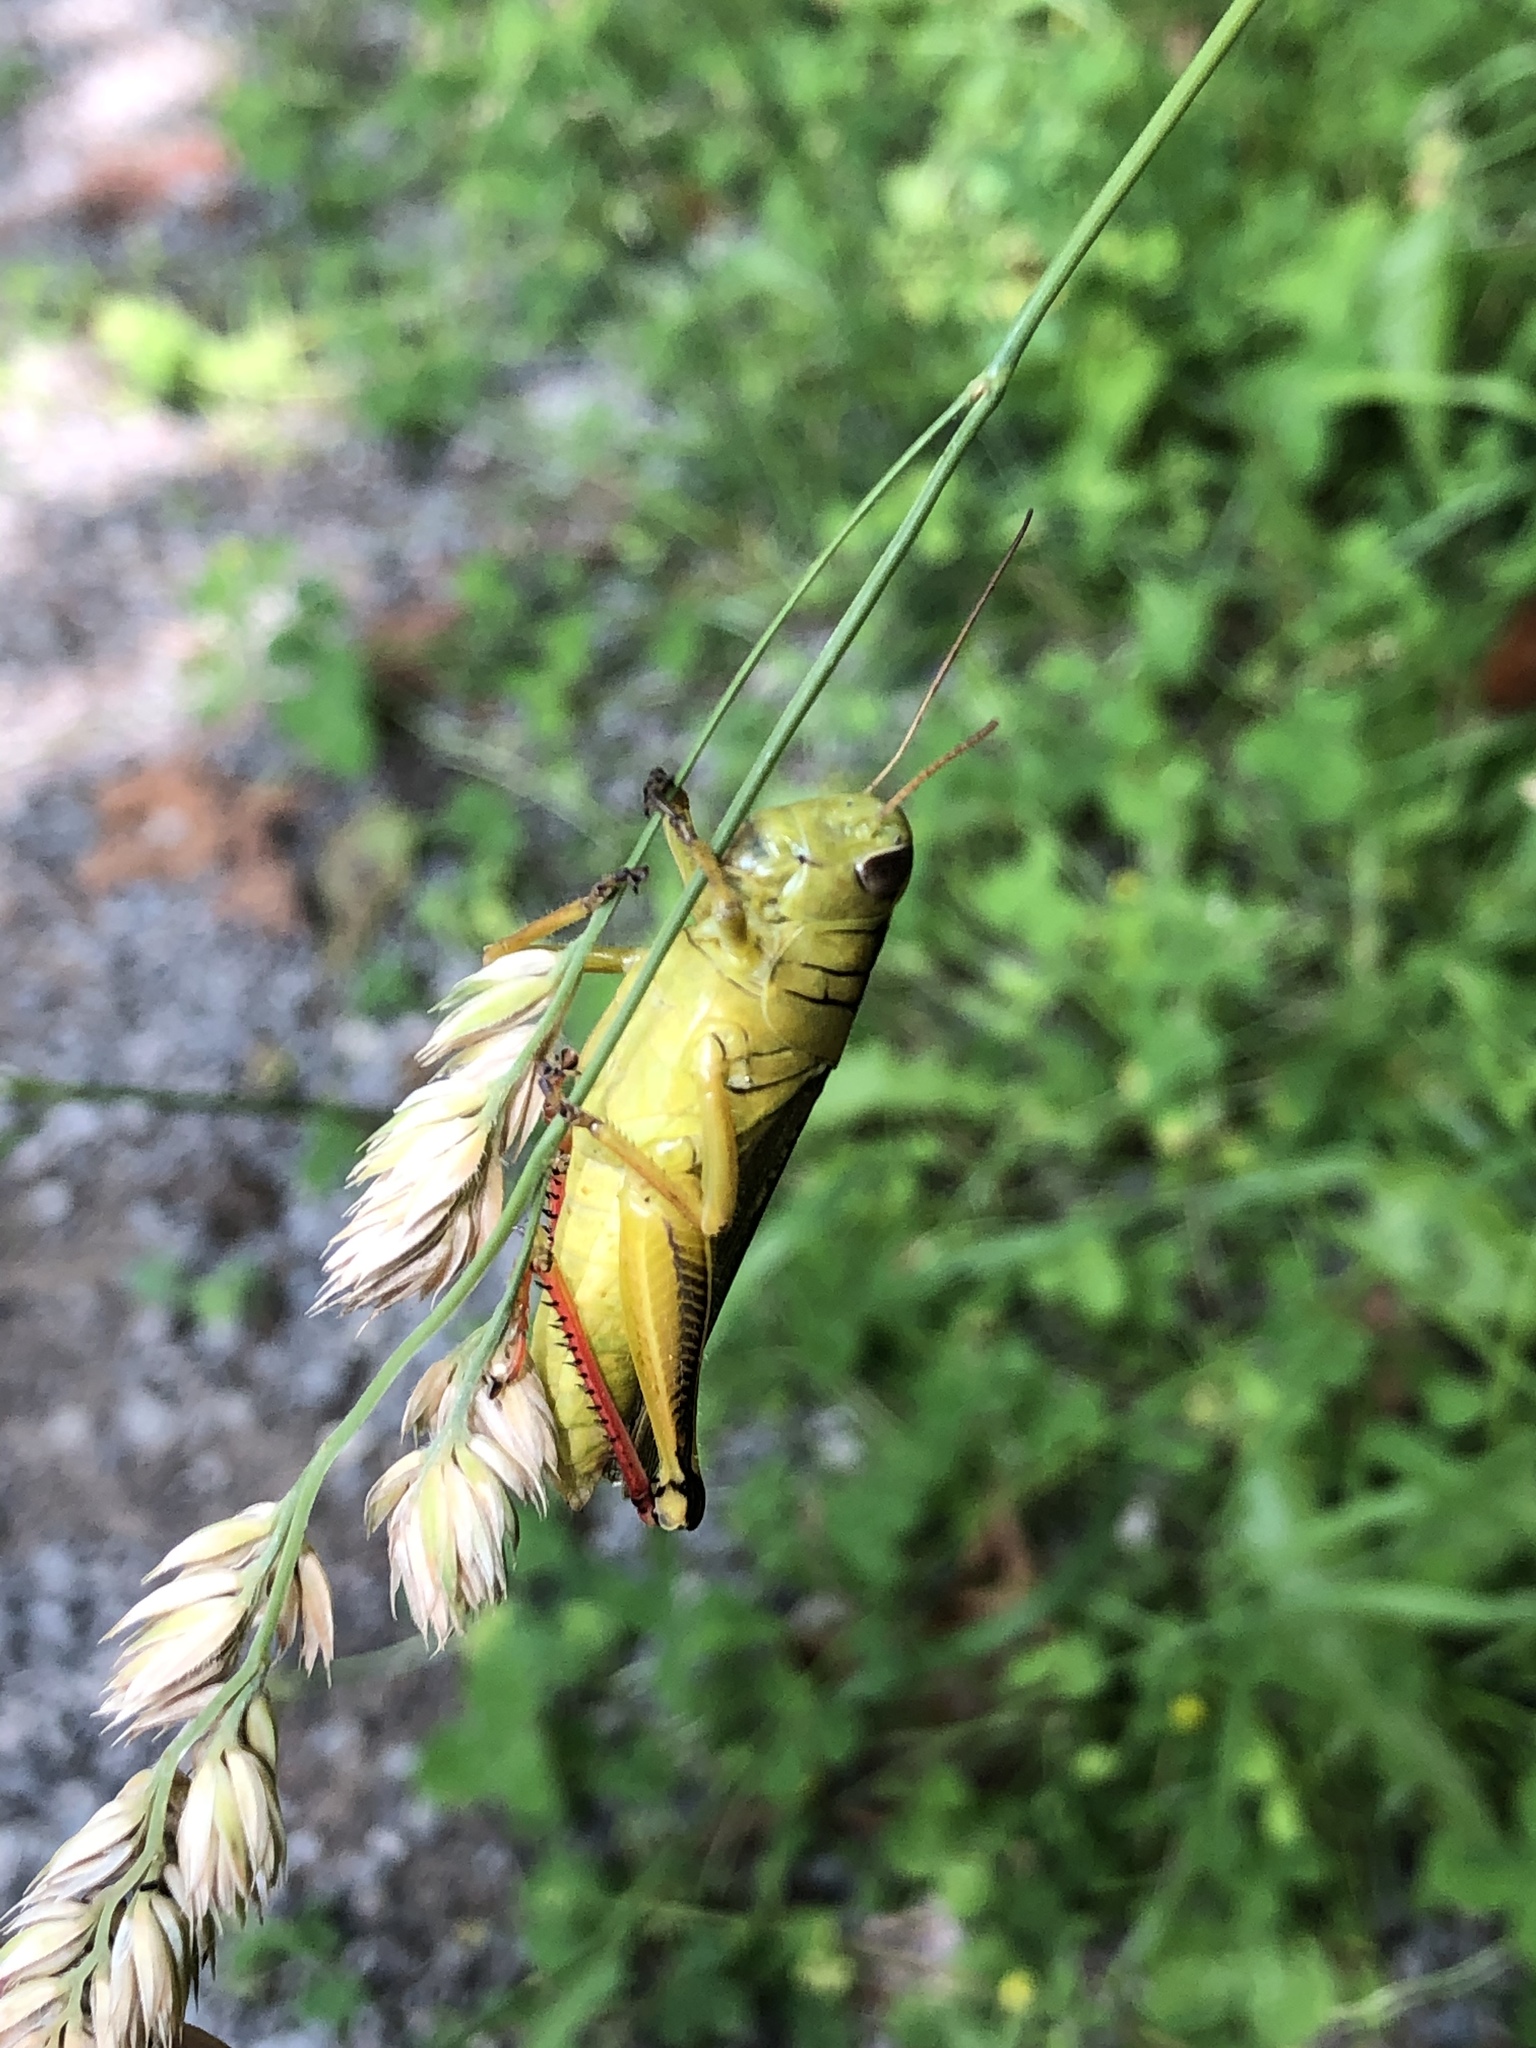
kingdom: Animalia
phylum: Arthropoda
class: Insecta
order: Orthoptera
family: Acrididae
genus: Melanoplus
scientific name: Melanoplus bivittatus
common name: Two-striped grasshopper
